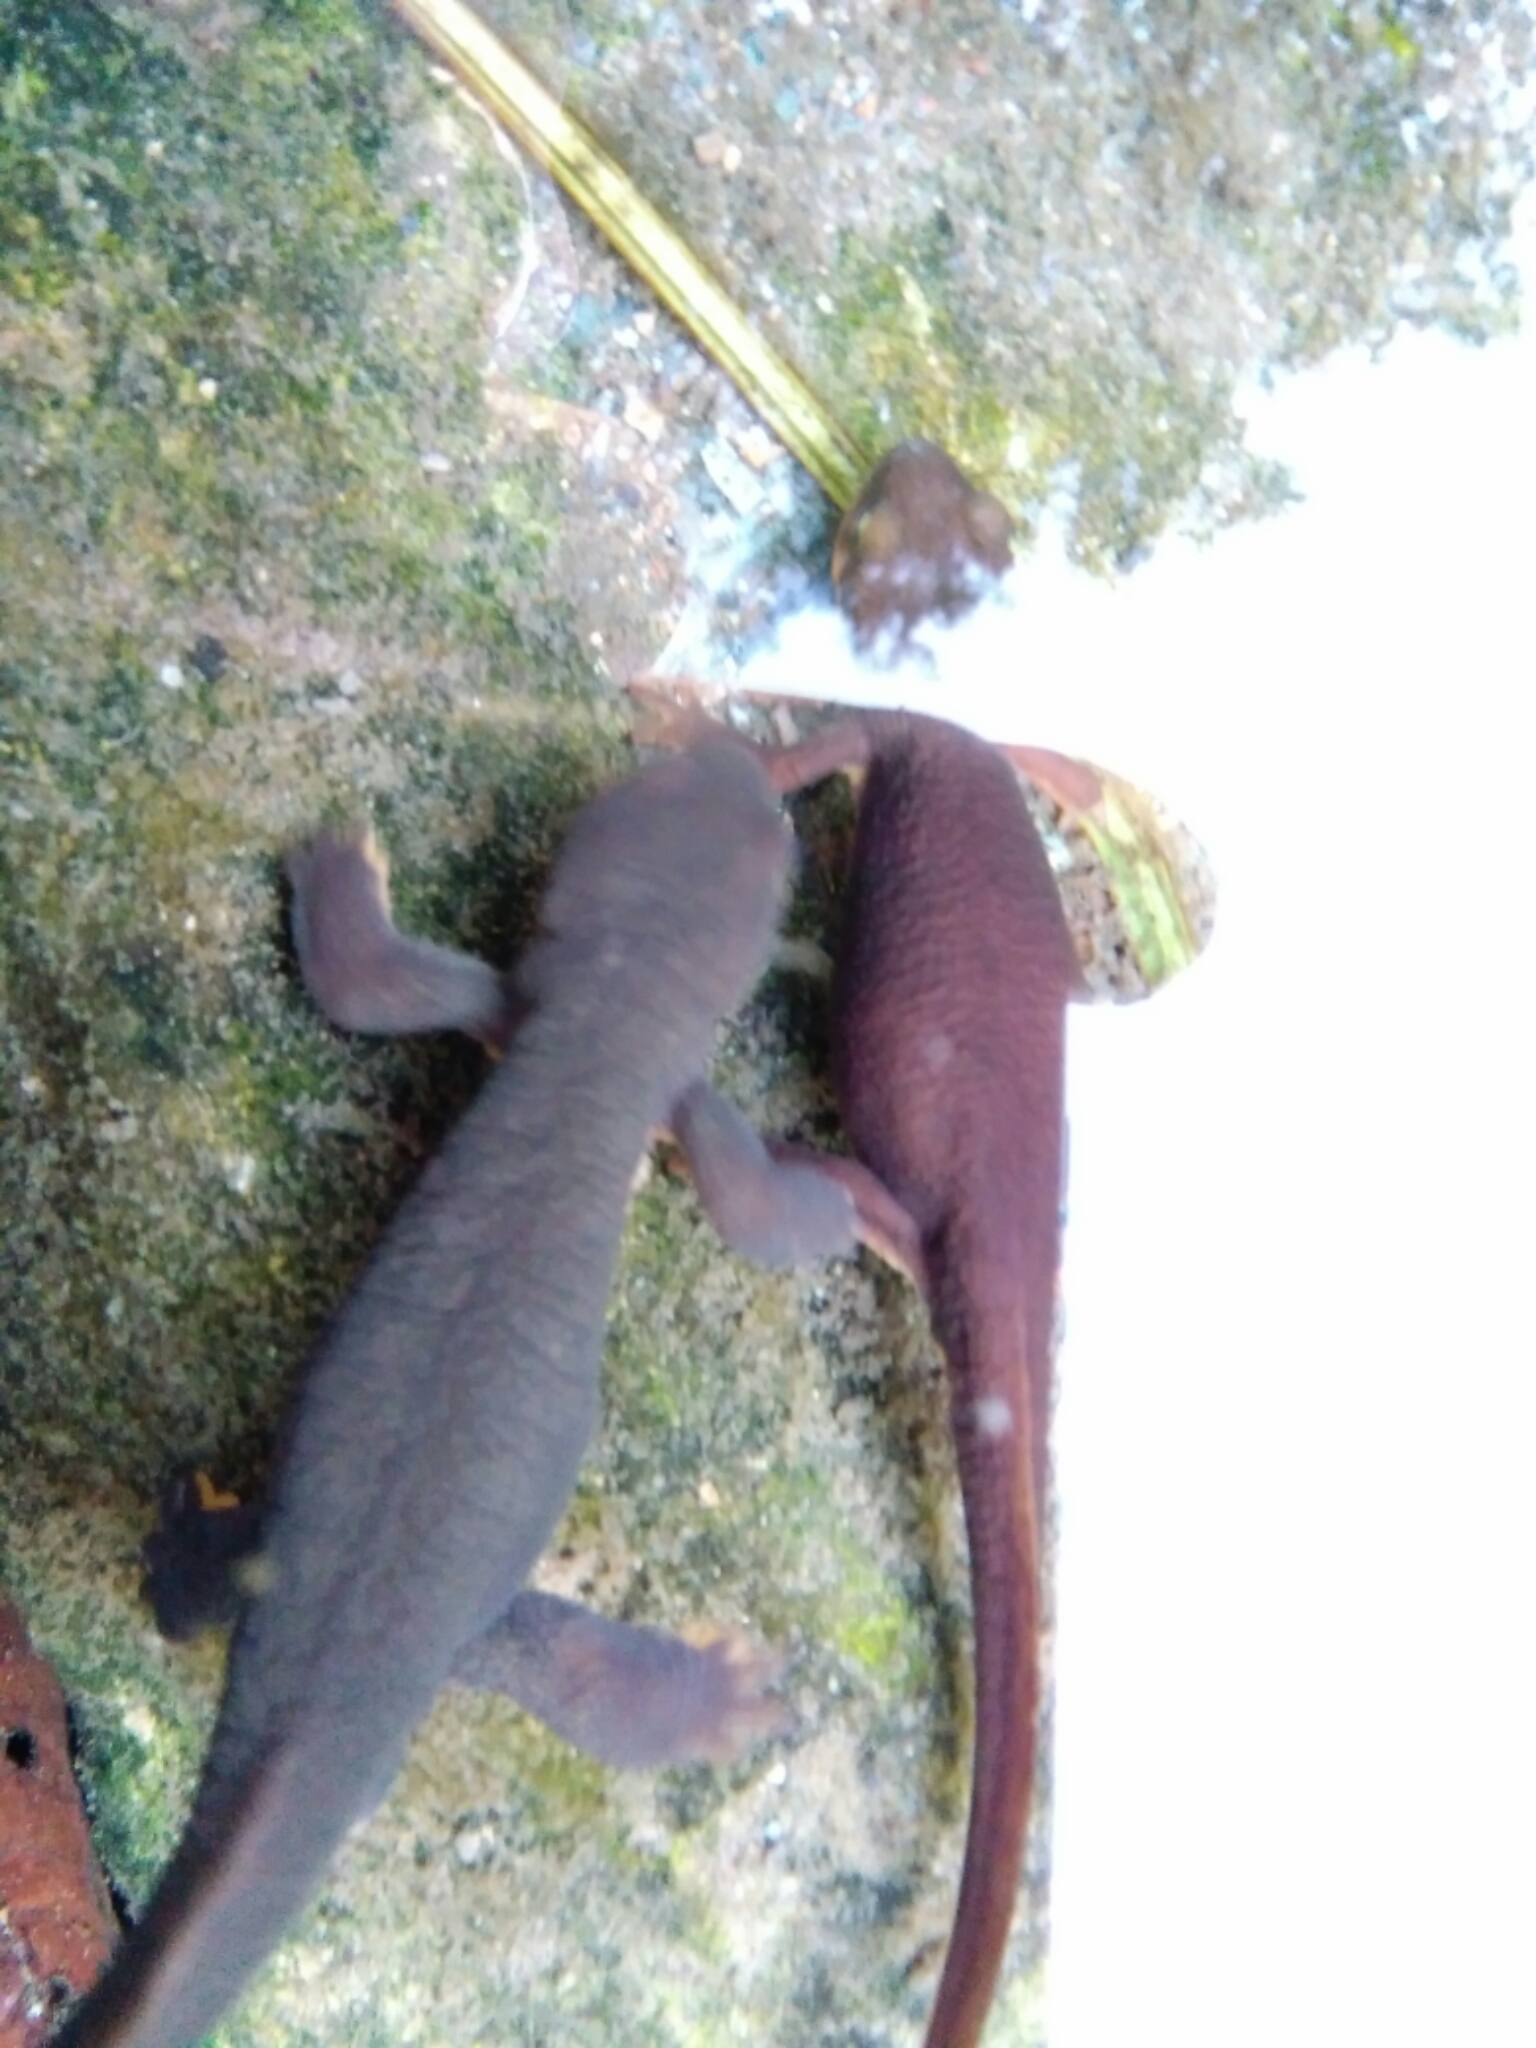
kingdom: Animalia
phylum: Chordata
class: Amphibia
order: Caudata
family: Salamandridae
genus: Taricha
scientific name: Taricha torosa
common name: California newt
